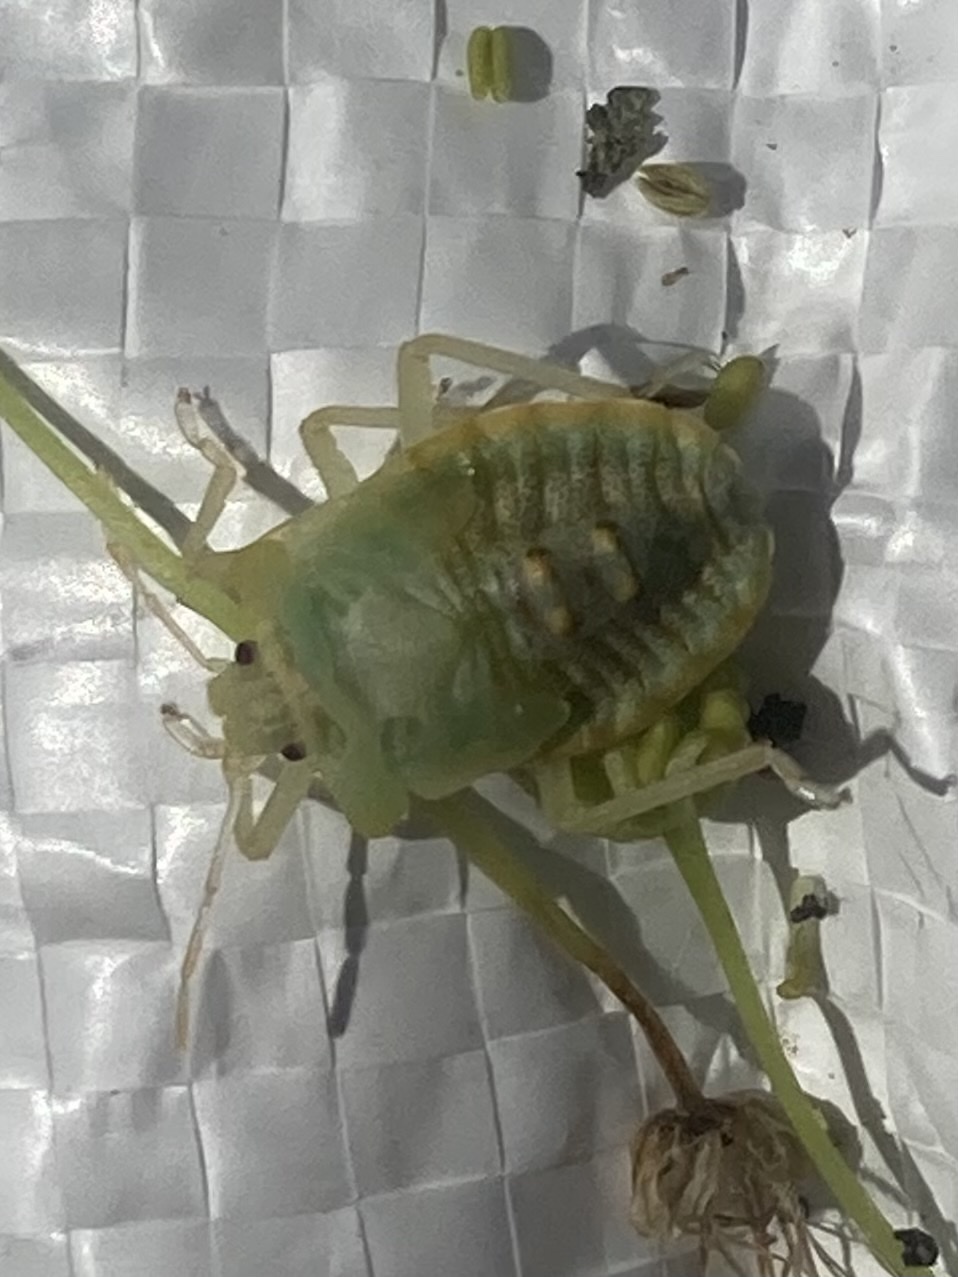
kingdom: Animalia
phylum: Arthropoda
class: Insecta
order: Hemiptera
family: Pentatomidae
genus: Pentatoma
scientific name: Pentatoma rufipes
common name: Forest bug
